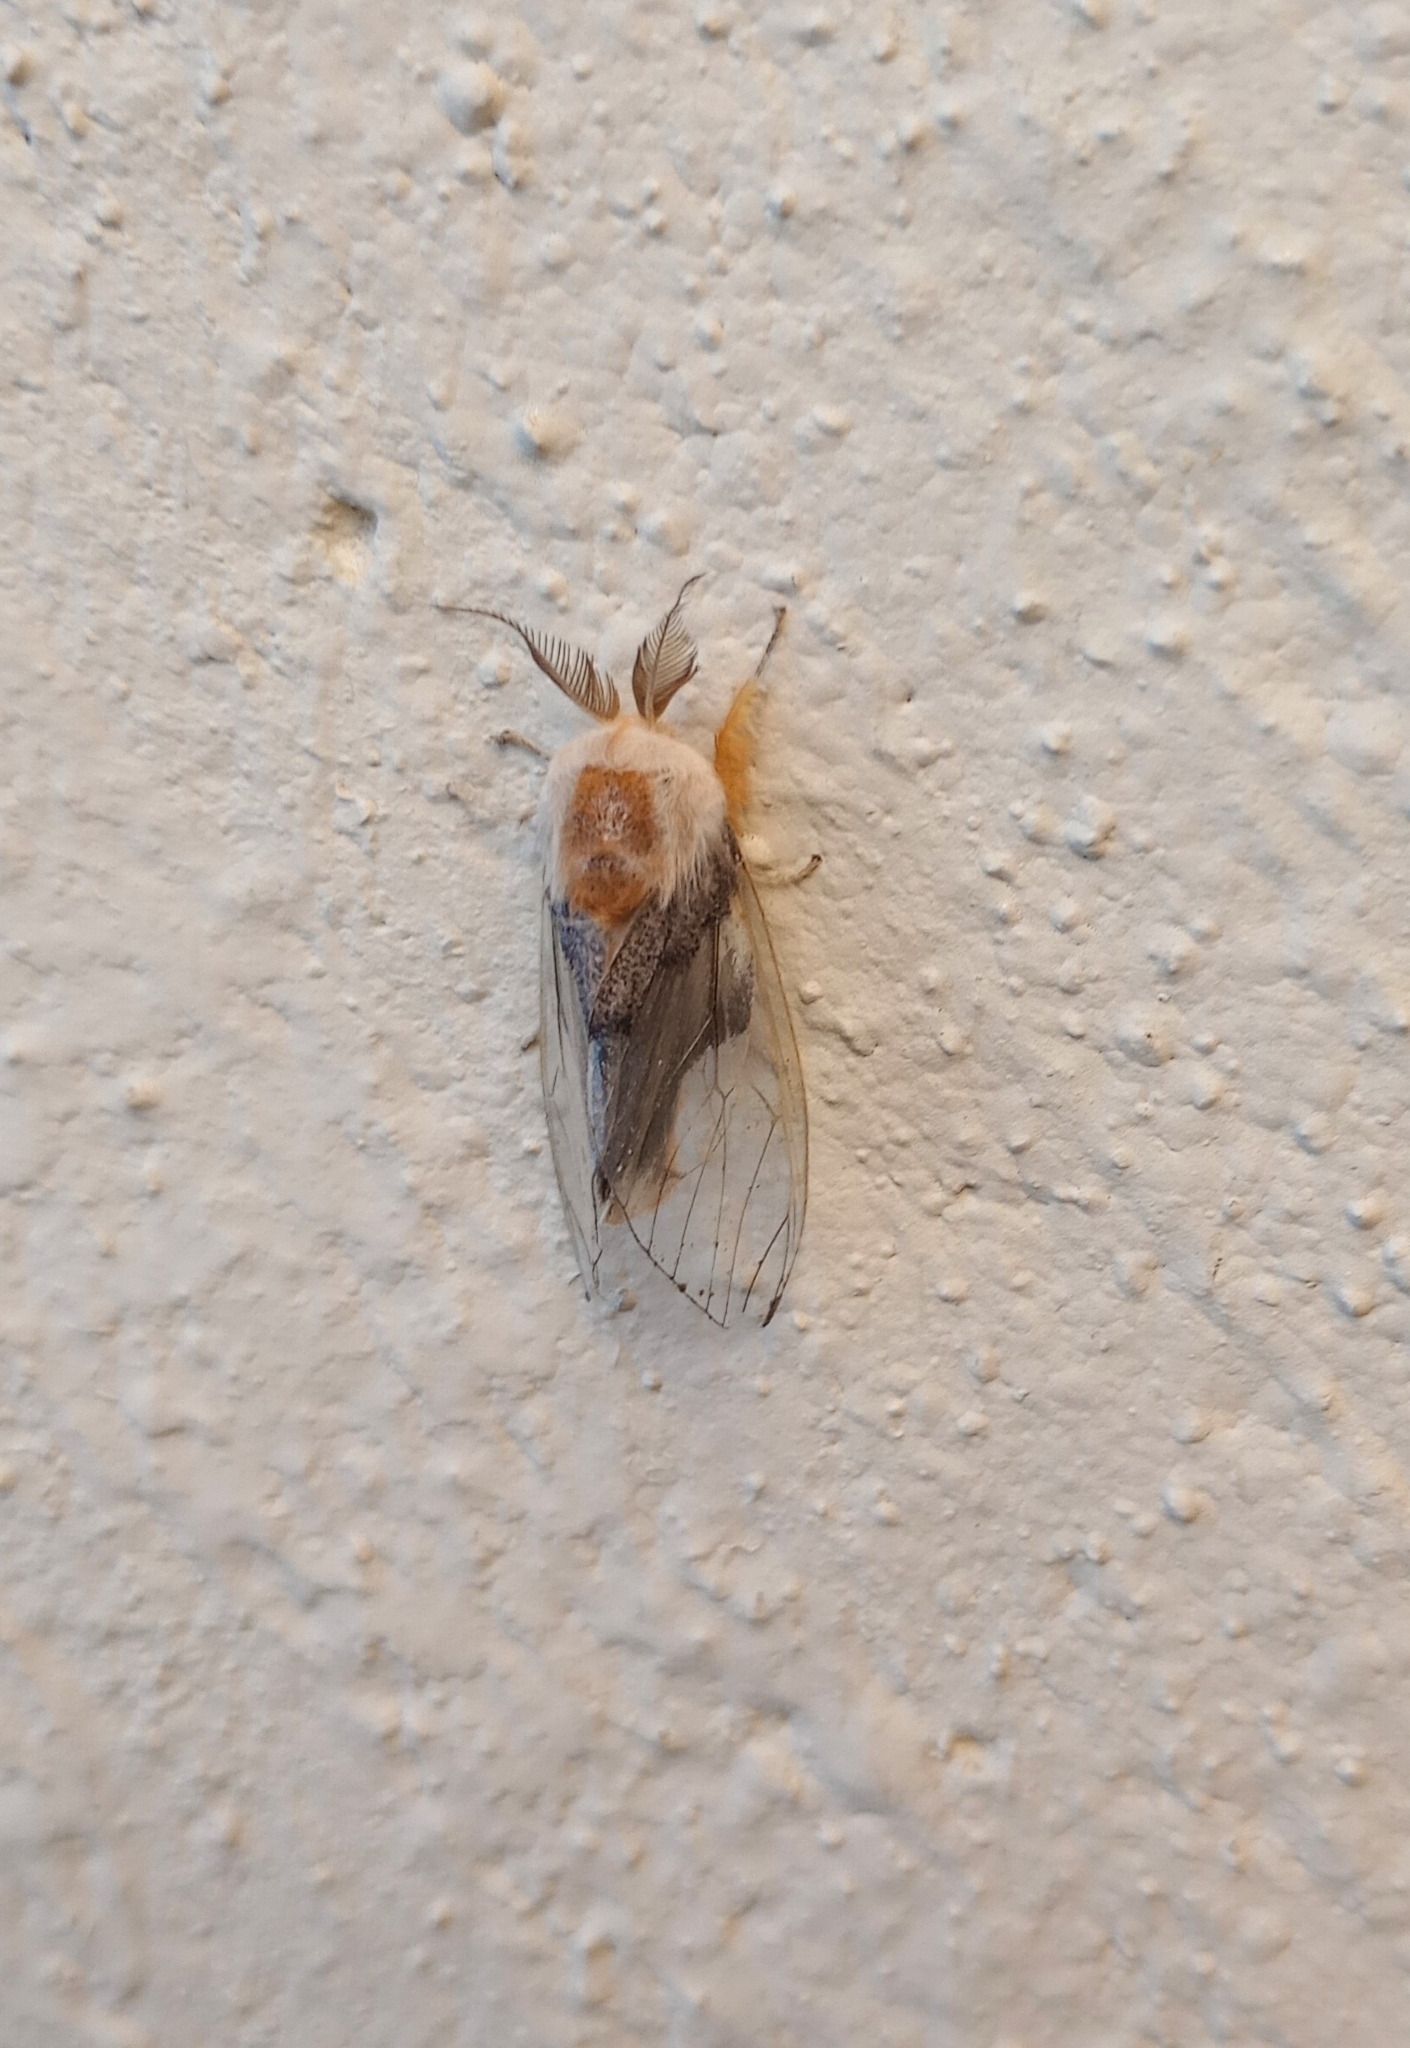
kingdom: Animalia
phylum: Arthropoda
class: Insecta
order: Lepidoptera
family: Erebidae
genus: Perina
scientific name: Perina nuda
